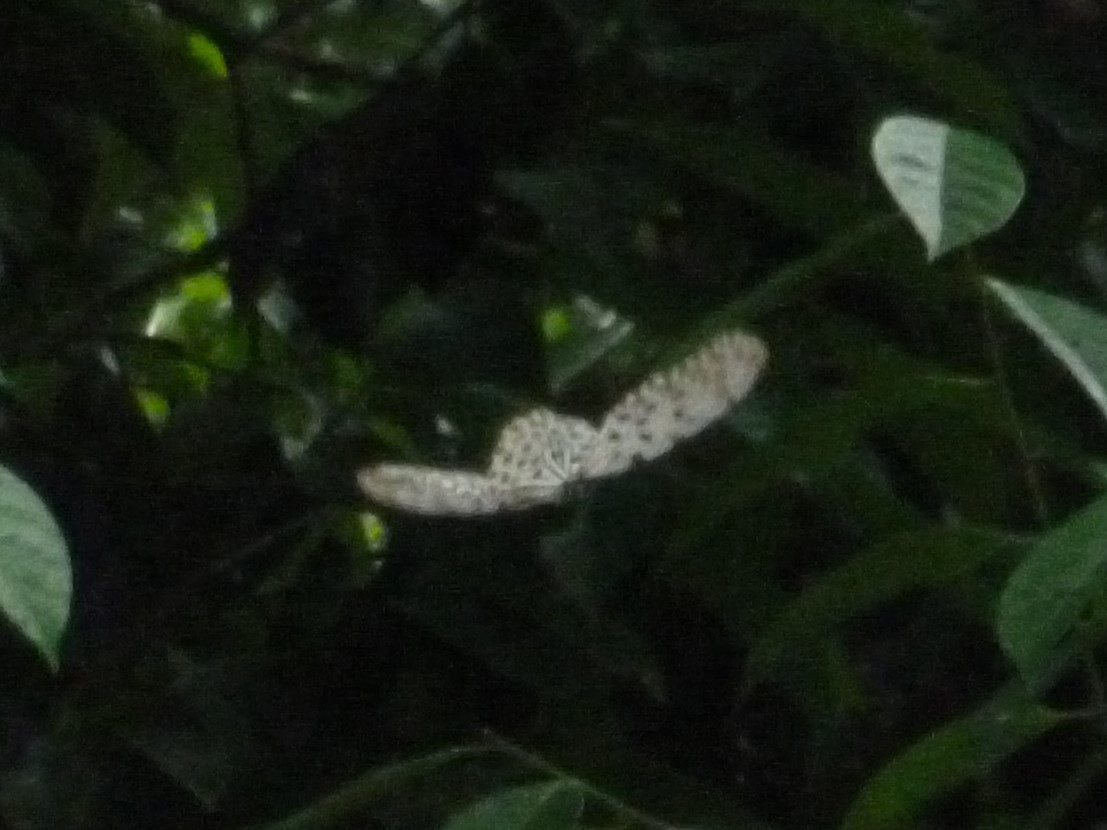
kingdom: Animalia
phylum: Arthropoda
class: Insecta
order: Lepidoptera
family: Nymphalidae
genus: Idea
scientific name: Idea stolli
